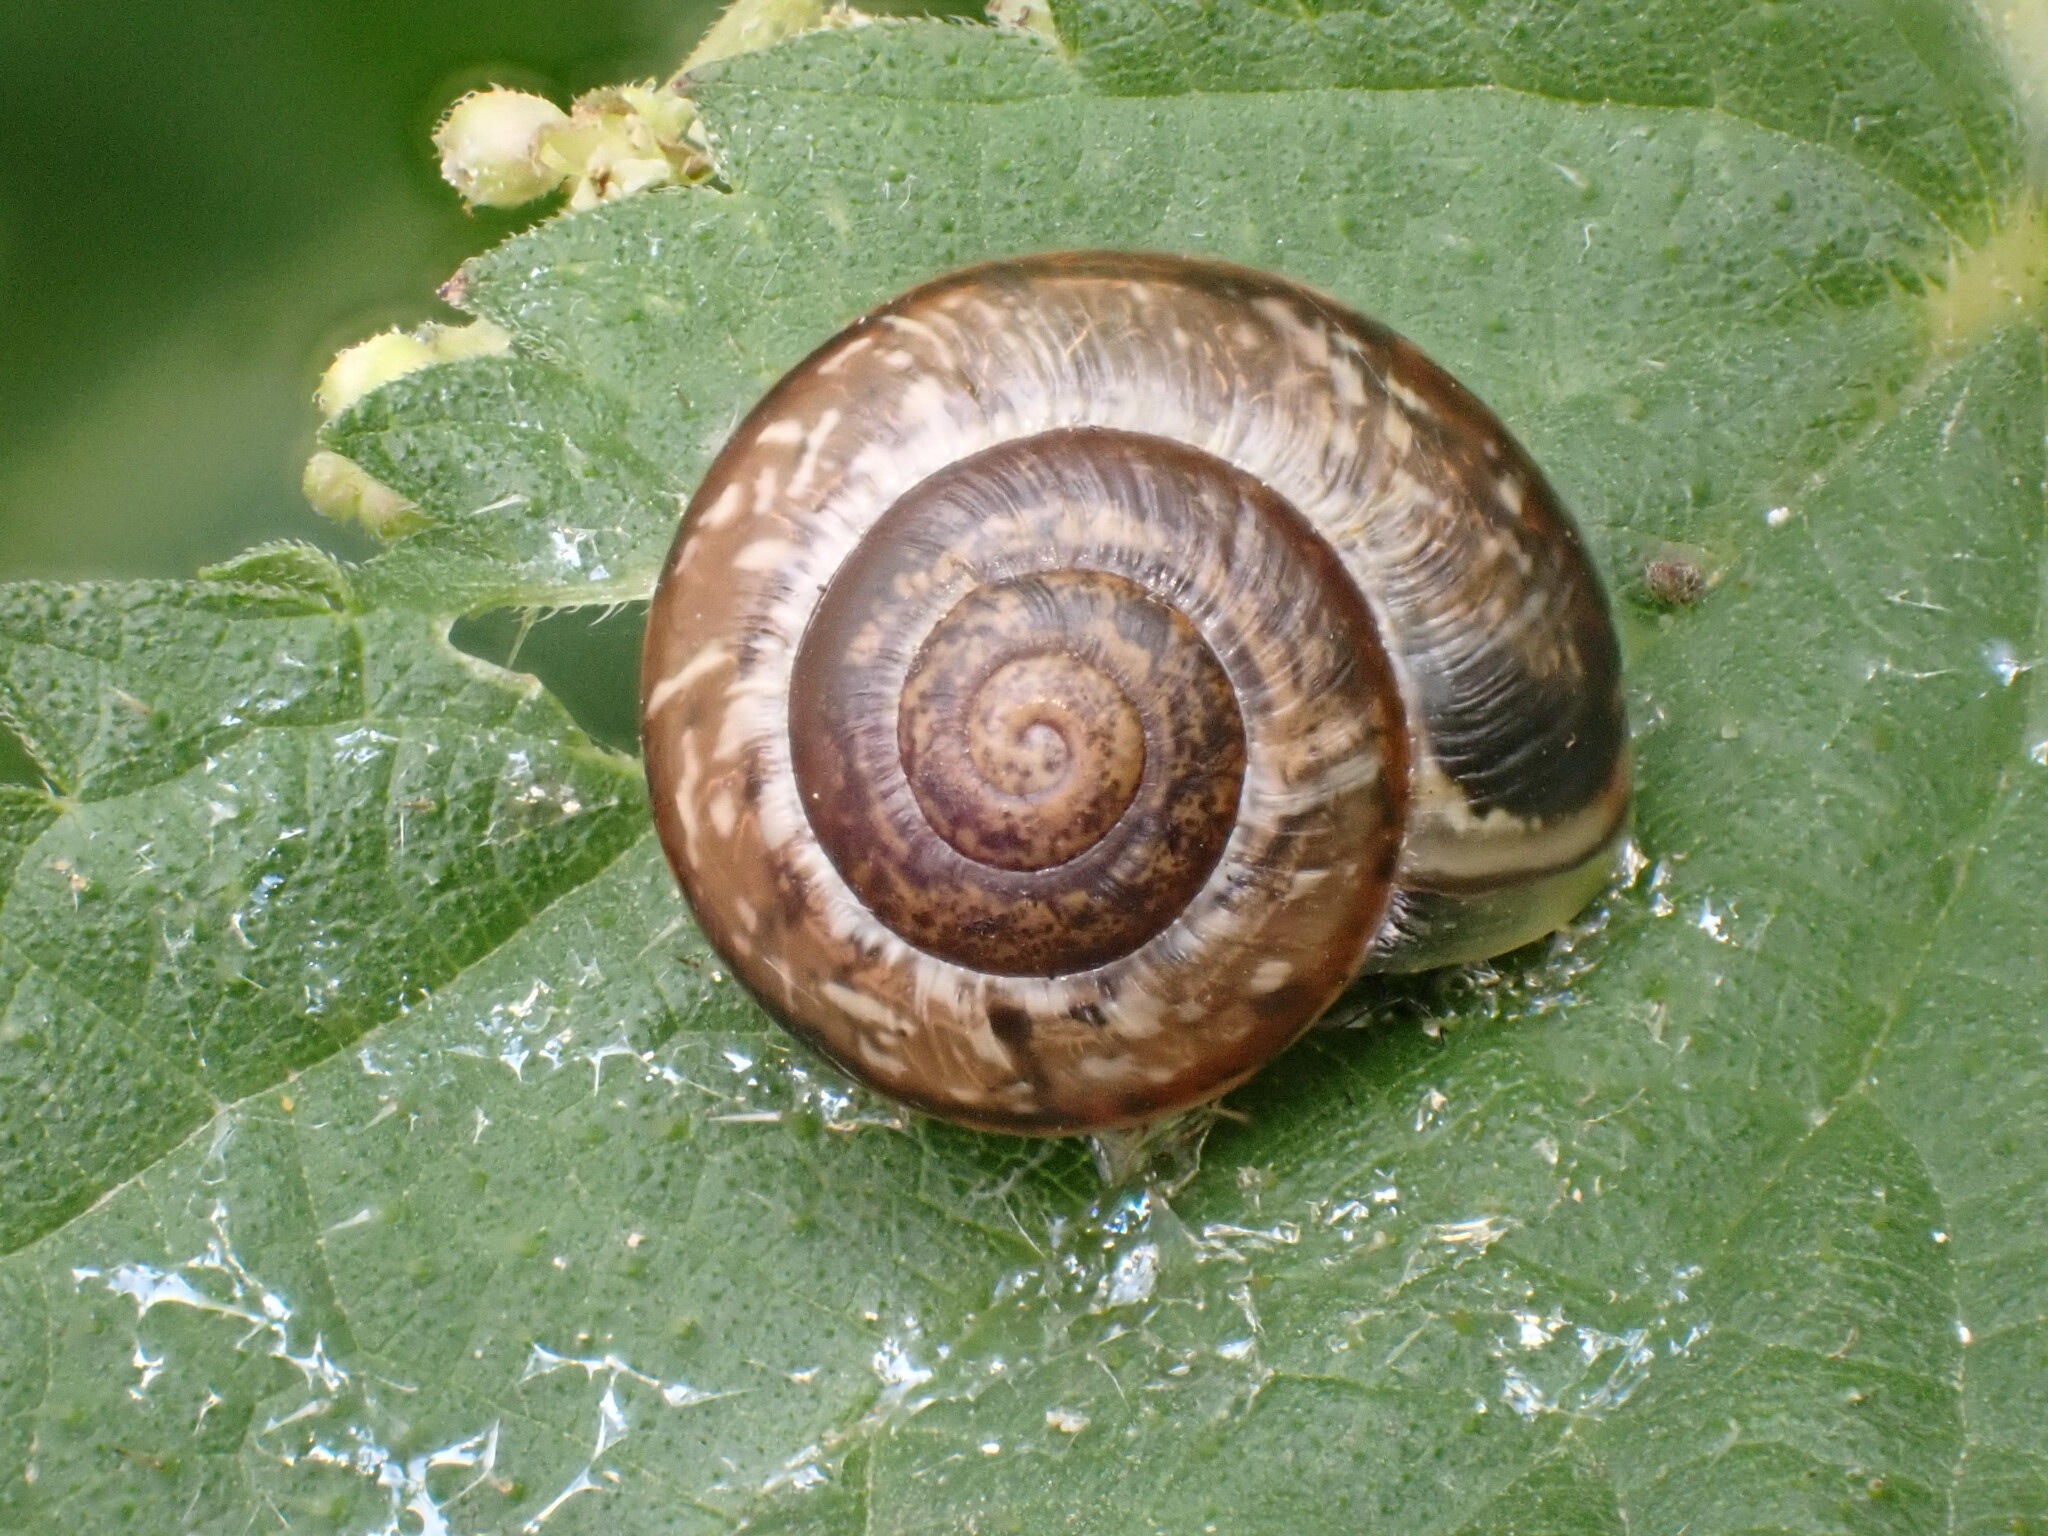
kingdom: Animalia
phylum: Mollusca
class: Gastropoda
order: Stylommatophora
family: Helicidae
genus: Arianta
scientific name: Arianta arbustorum
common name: Copse snail
